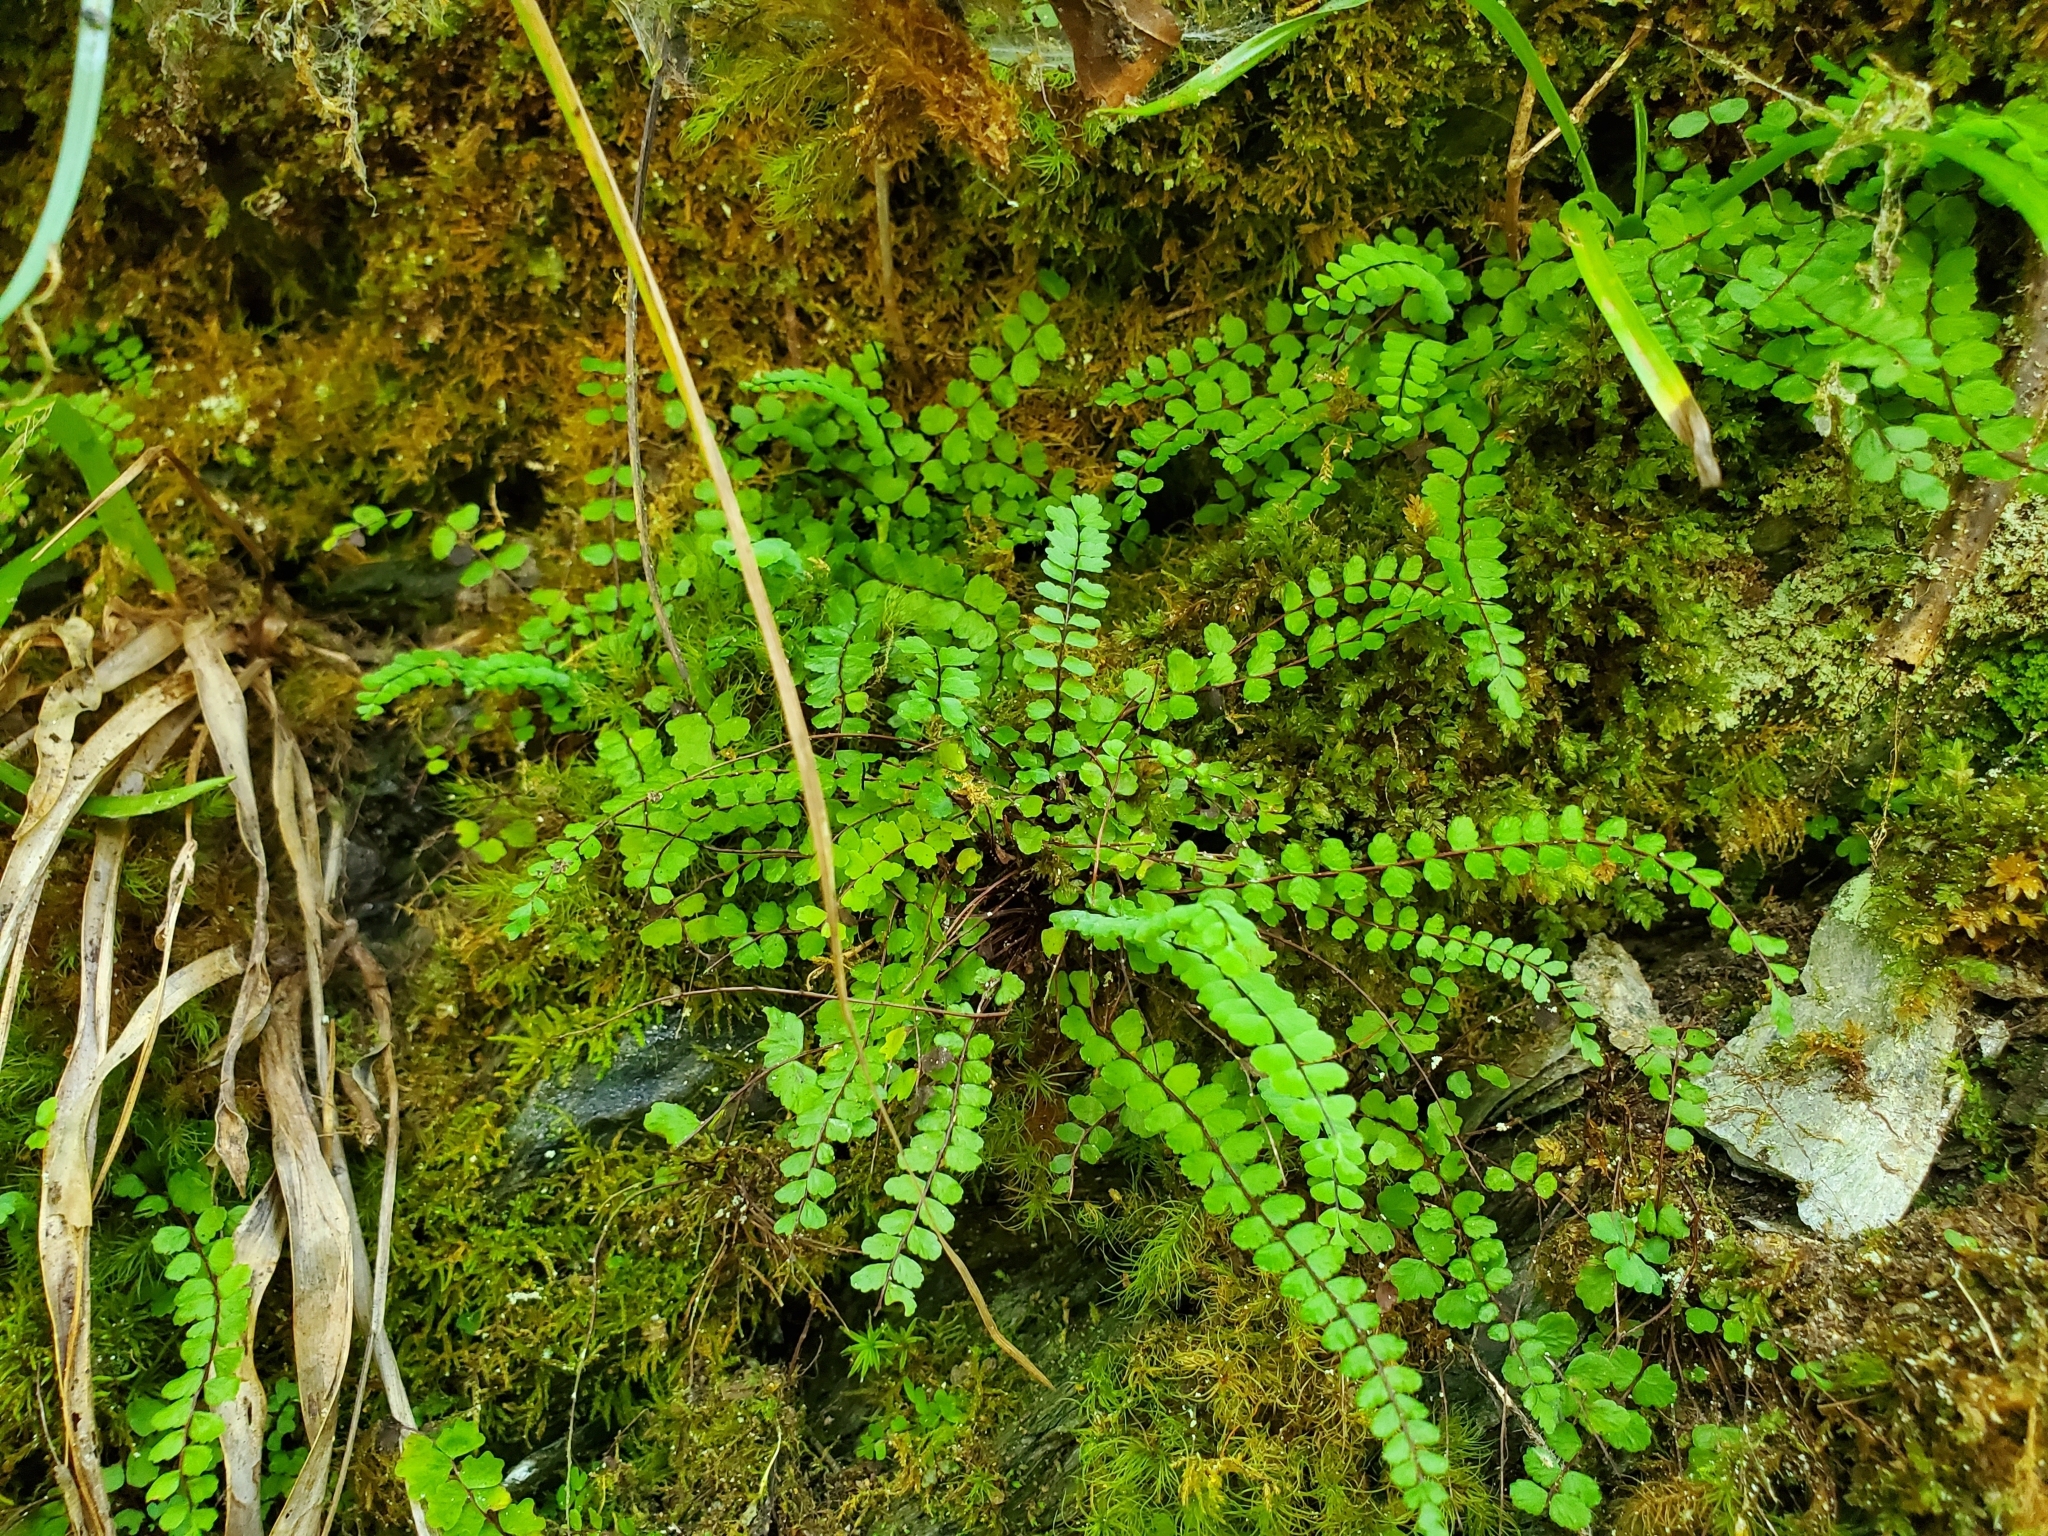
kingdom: Plantae
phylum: Tracheophyta
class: Polypodiopsida
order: Polypodiales
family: Aspleniaceae
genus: Asplenium
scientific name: Asplenium trichomanes
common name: Maidenhair spleenwort
